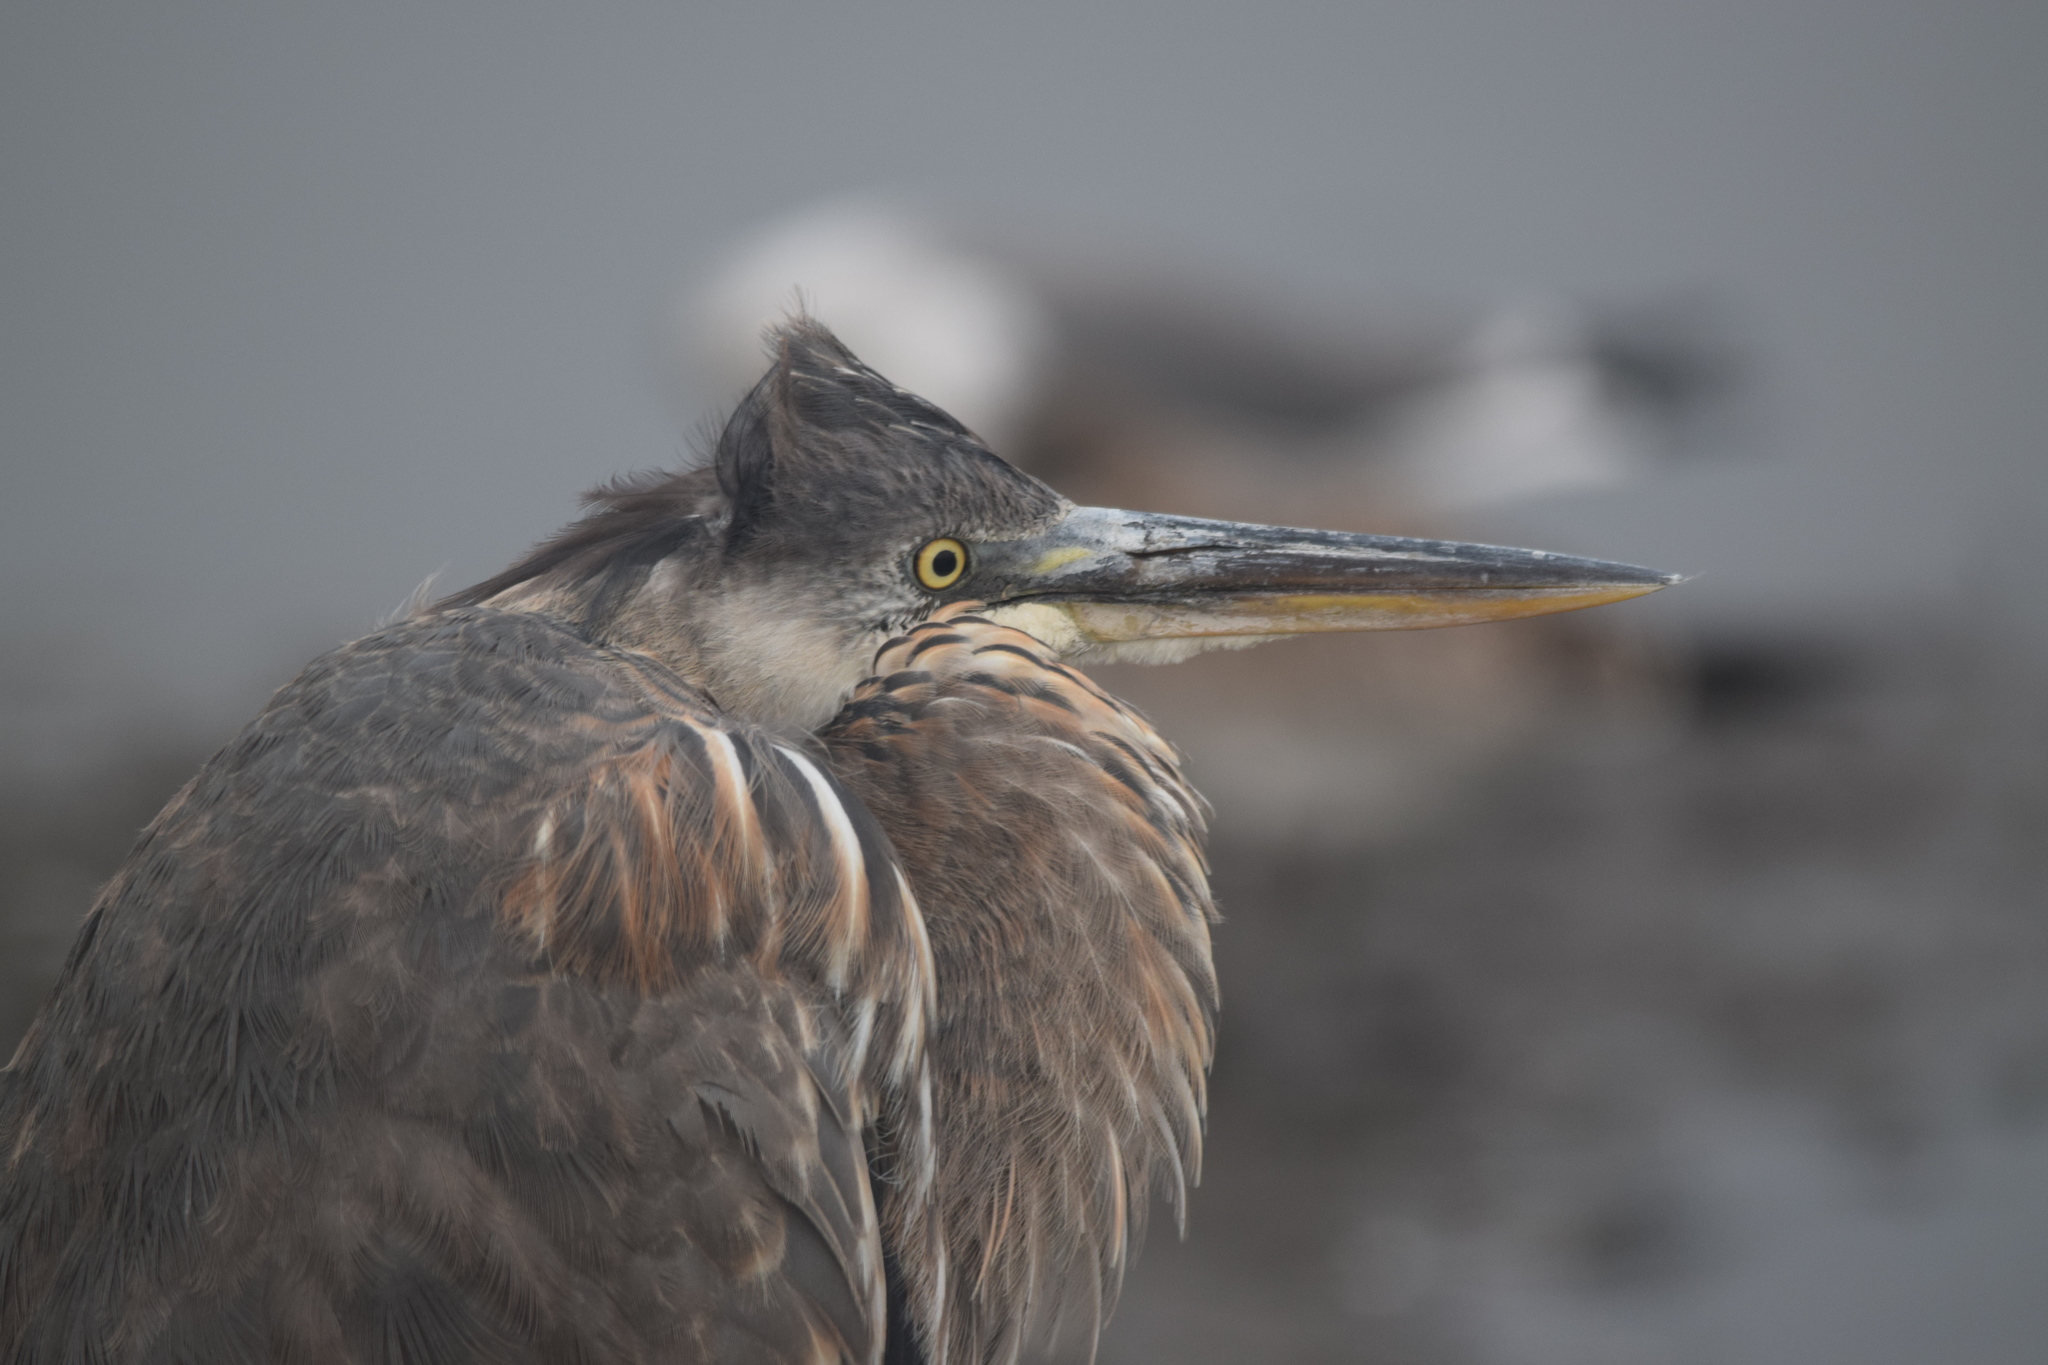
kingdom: Animalia
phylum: Chordata
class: Aves
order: Pelecaniformes
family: Ardeidae
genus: Ardea
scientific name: Ardea herodias
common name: Great blue heron
